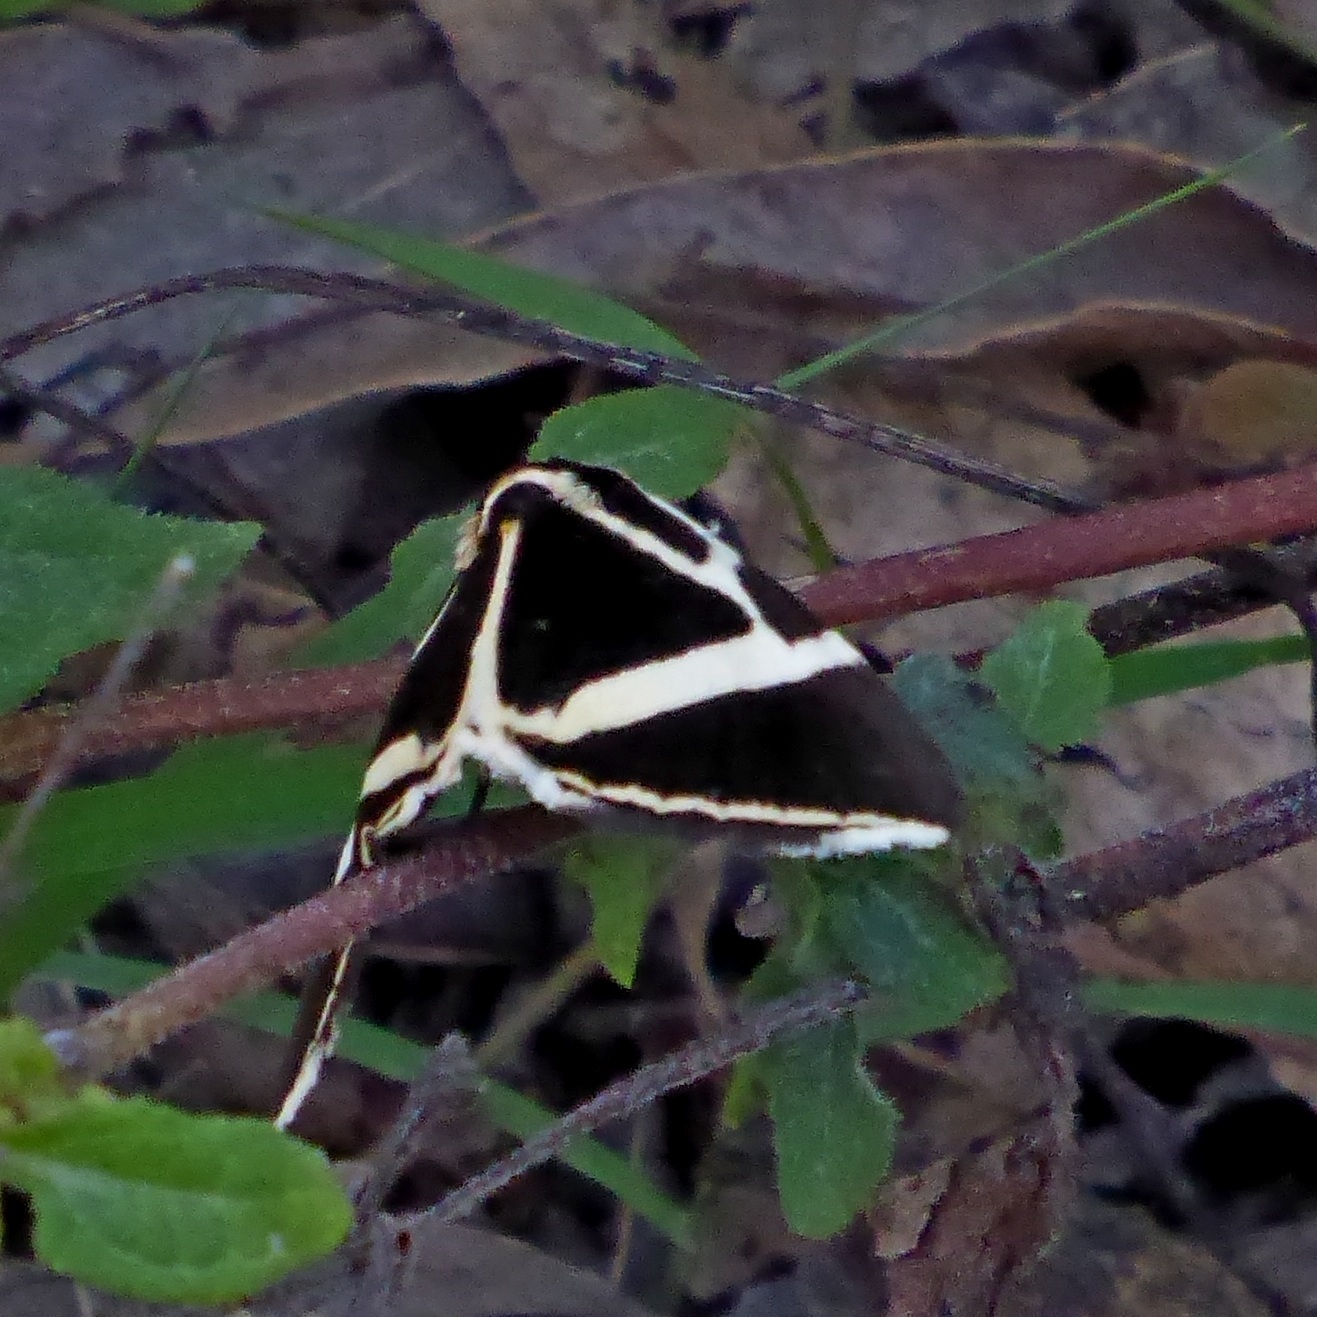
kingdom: Animalia
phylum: Arthropoda
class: Insecta
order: Lepidoptera
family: Erebidae
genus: Fodina
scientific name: Fodina ostorius
